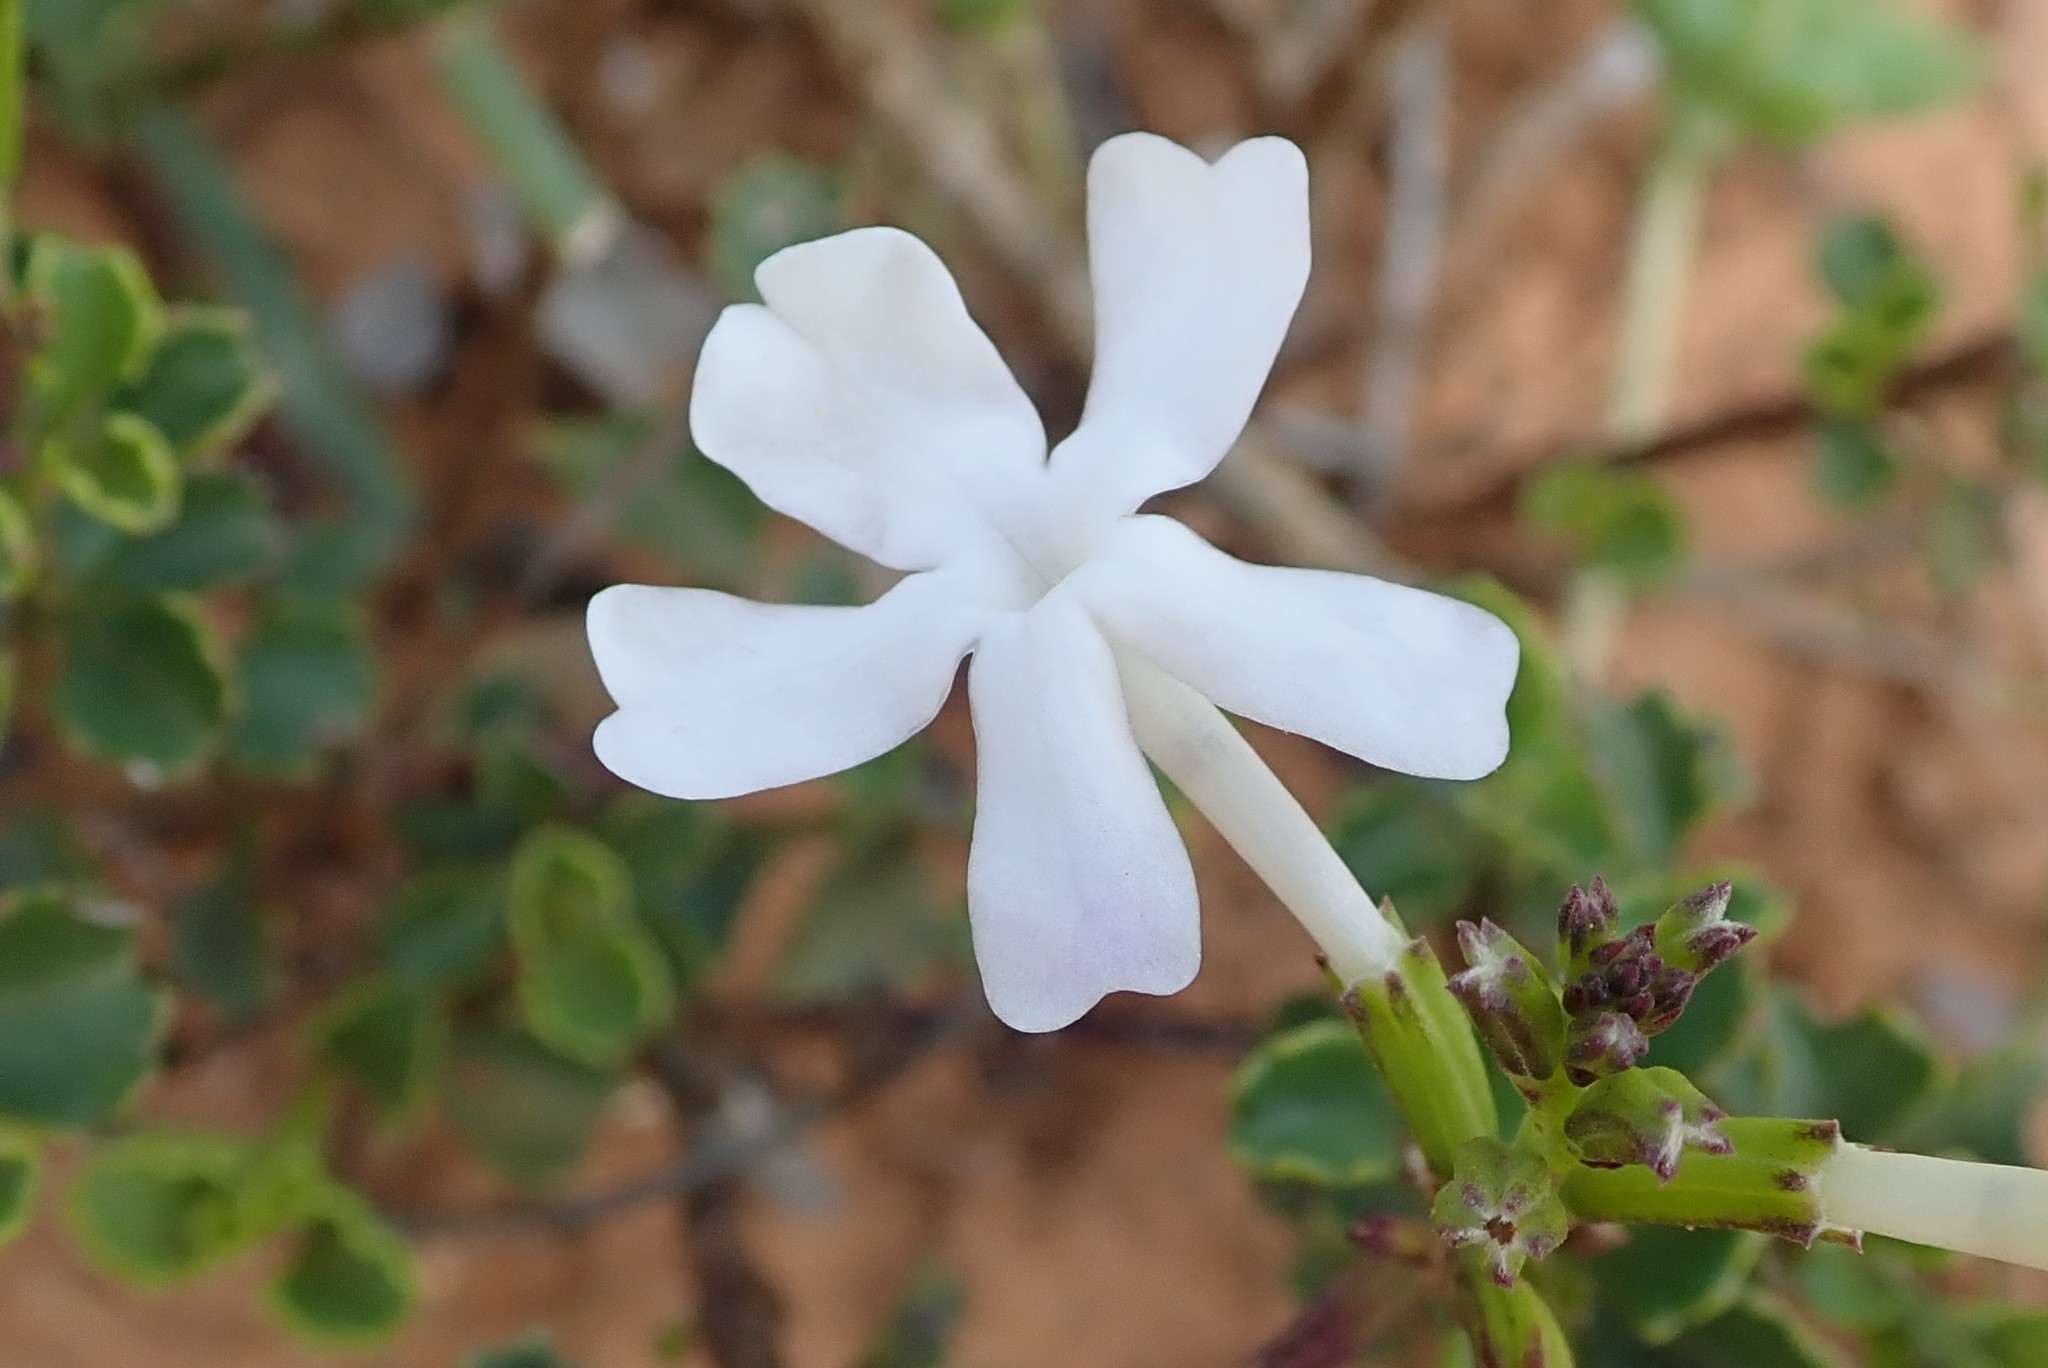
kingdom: Plantae
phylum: Tracheophyta
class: Magnoliopsida
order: Lamiales
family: Verbenaceae
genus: Chascanum
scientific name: Chascanum cuneifolium
